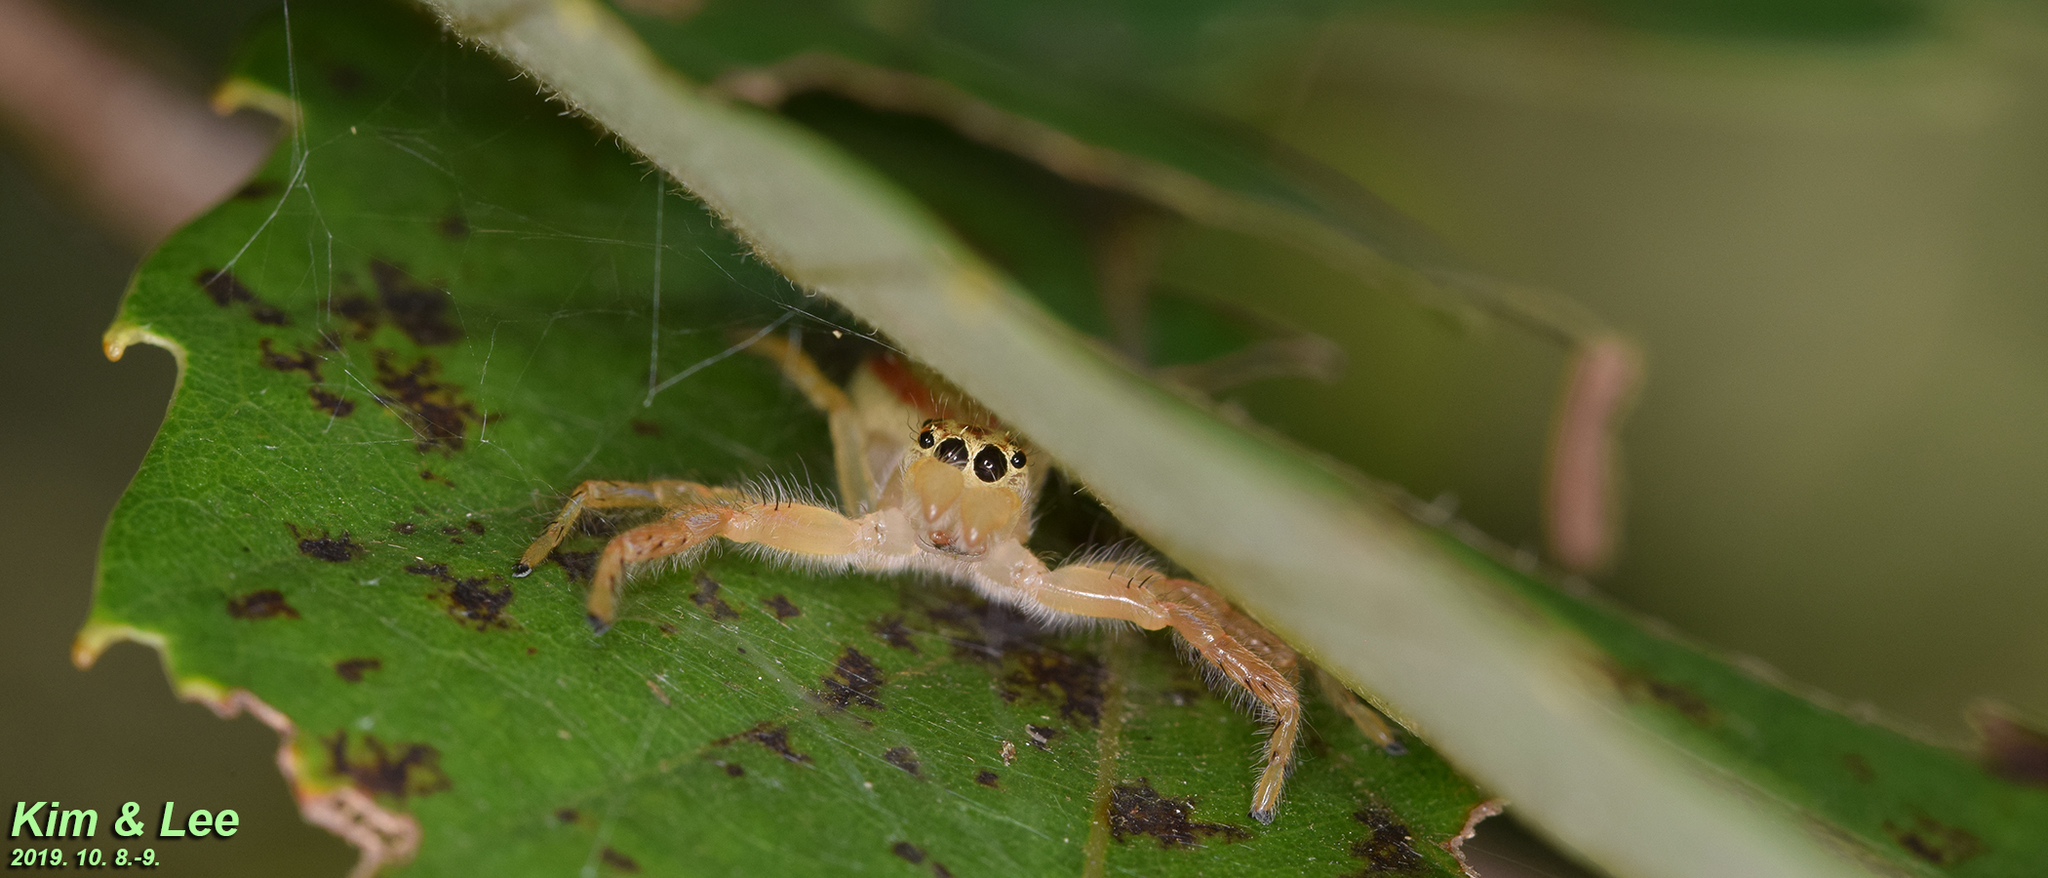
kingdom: Animalia
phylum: Arthropoda
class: Arachnida
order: Araneae
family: Salticidae
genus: Telamonia
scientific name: Telamonia vlijmi
